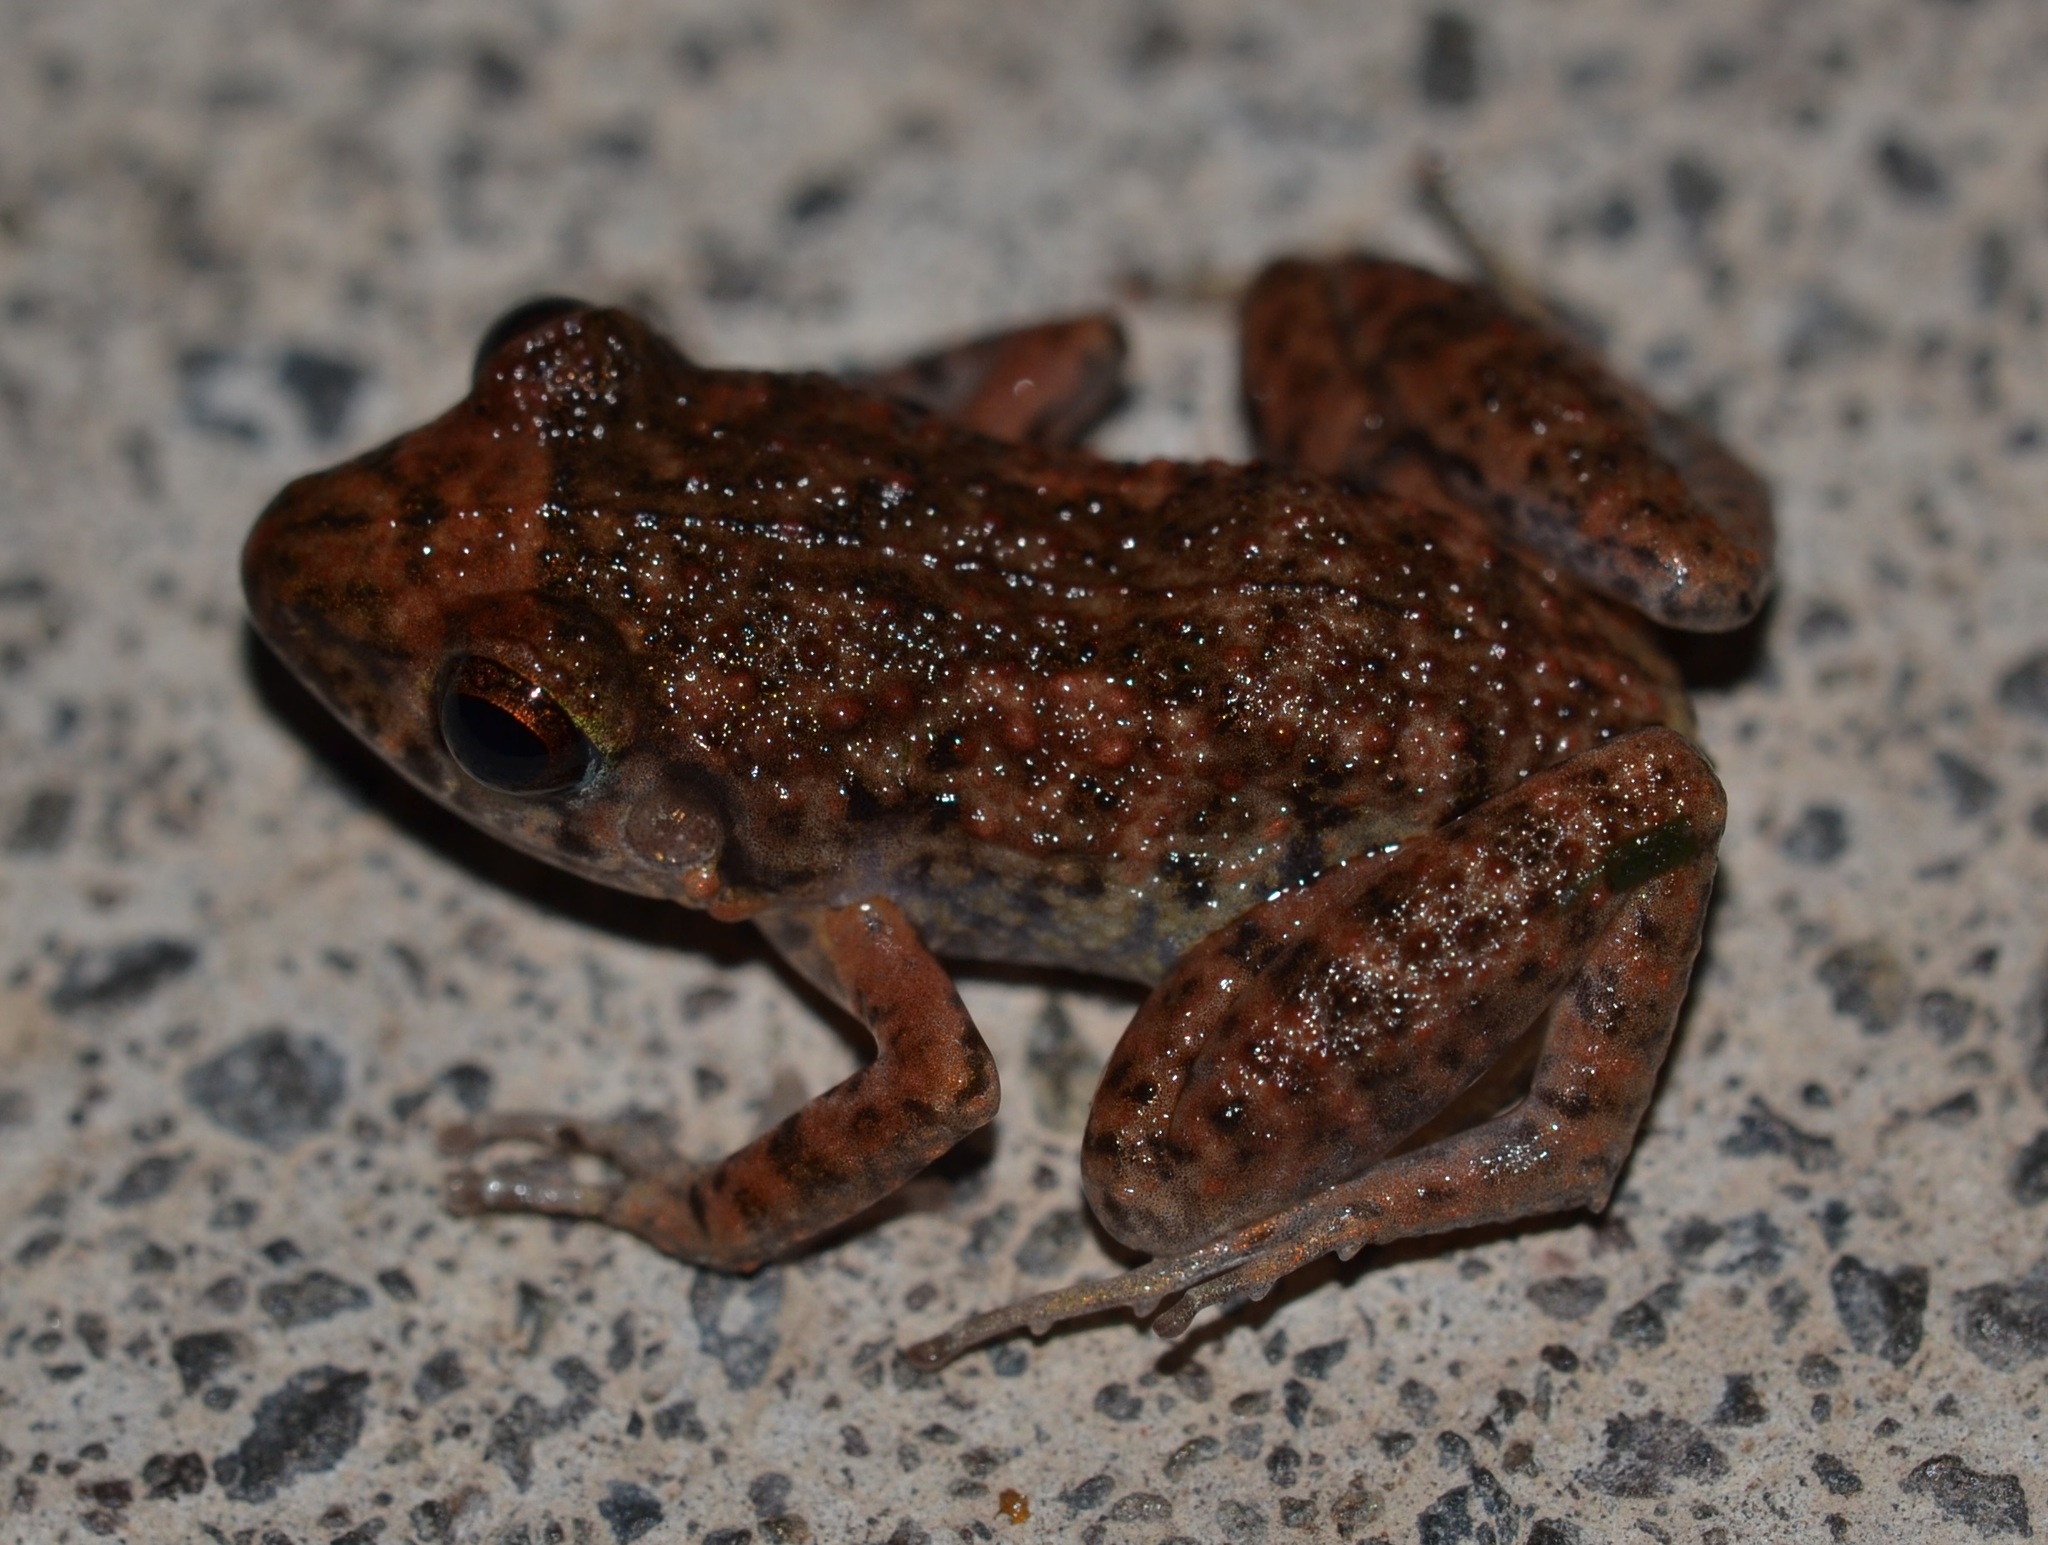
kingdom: Animalia
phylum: Chordata
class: Amphibia
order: Anura
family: Eleutherodactylidae
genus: Eleutherodactylus
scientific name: Eleutherodactylus planirostris
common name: Greenhouse frog
